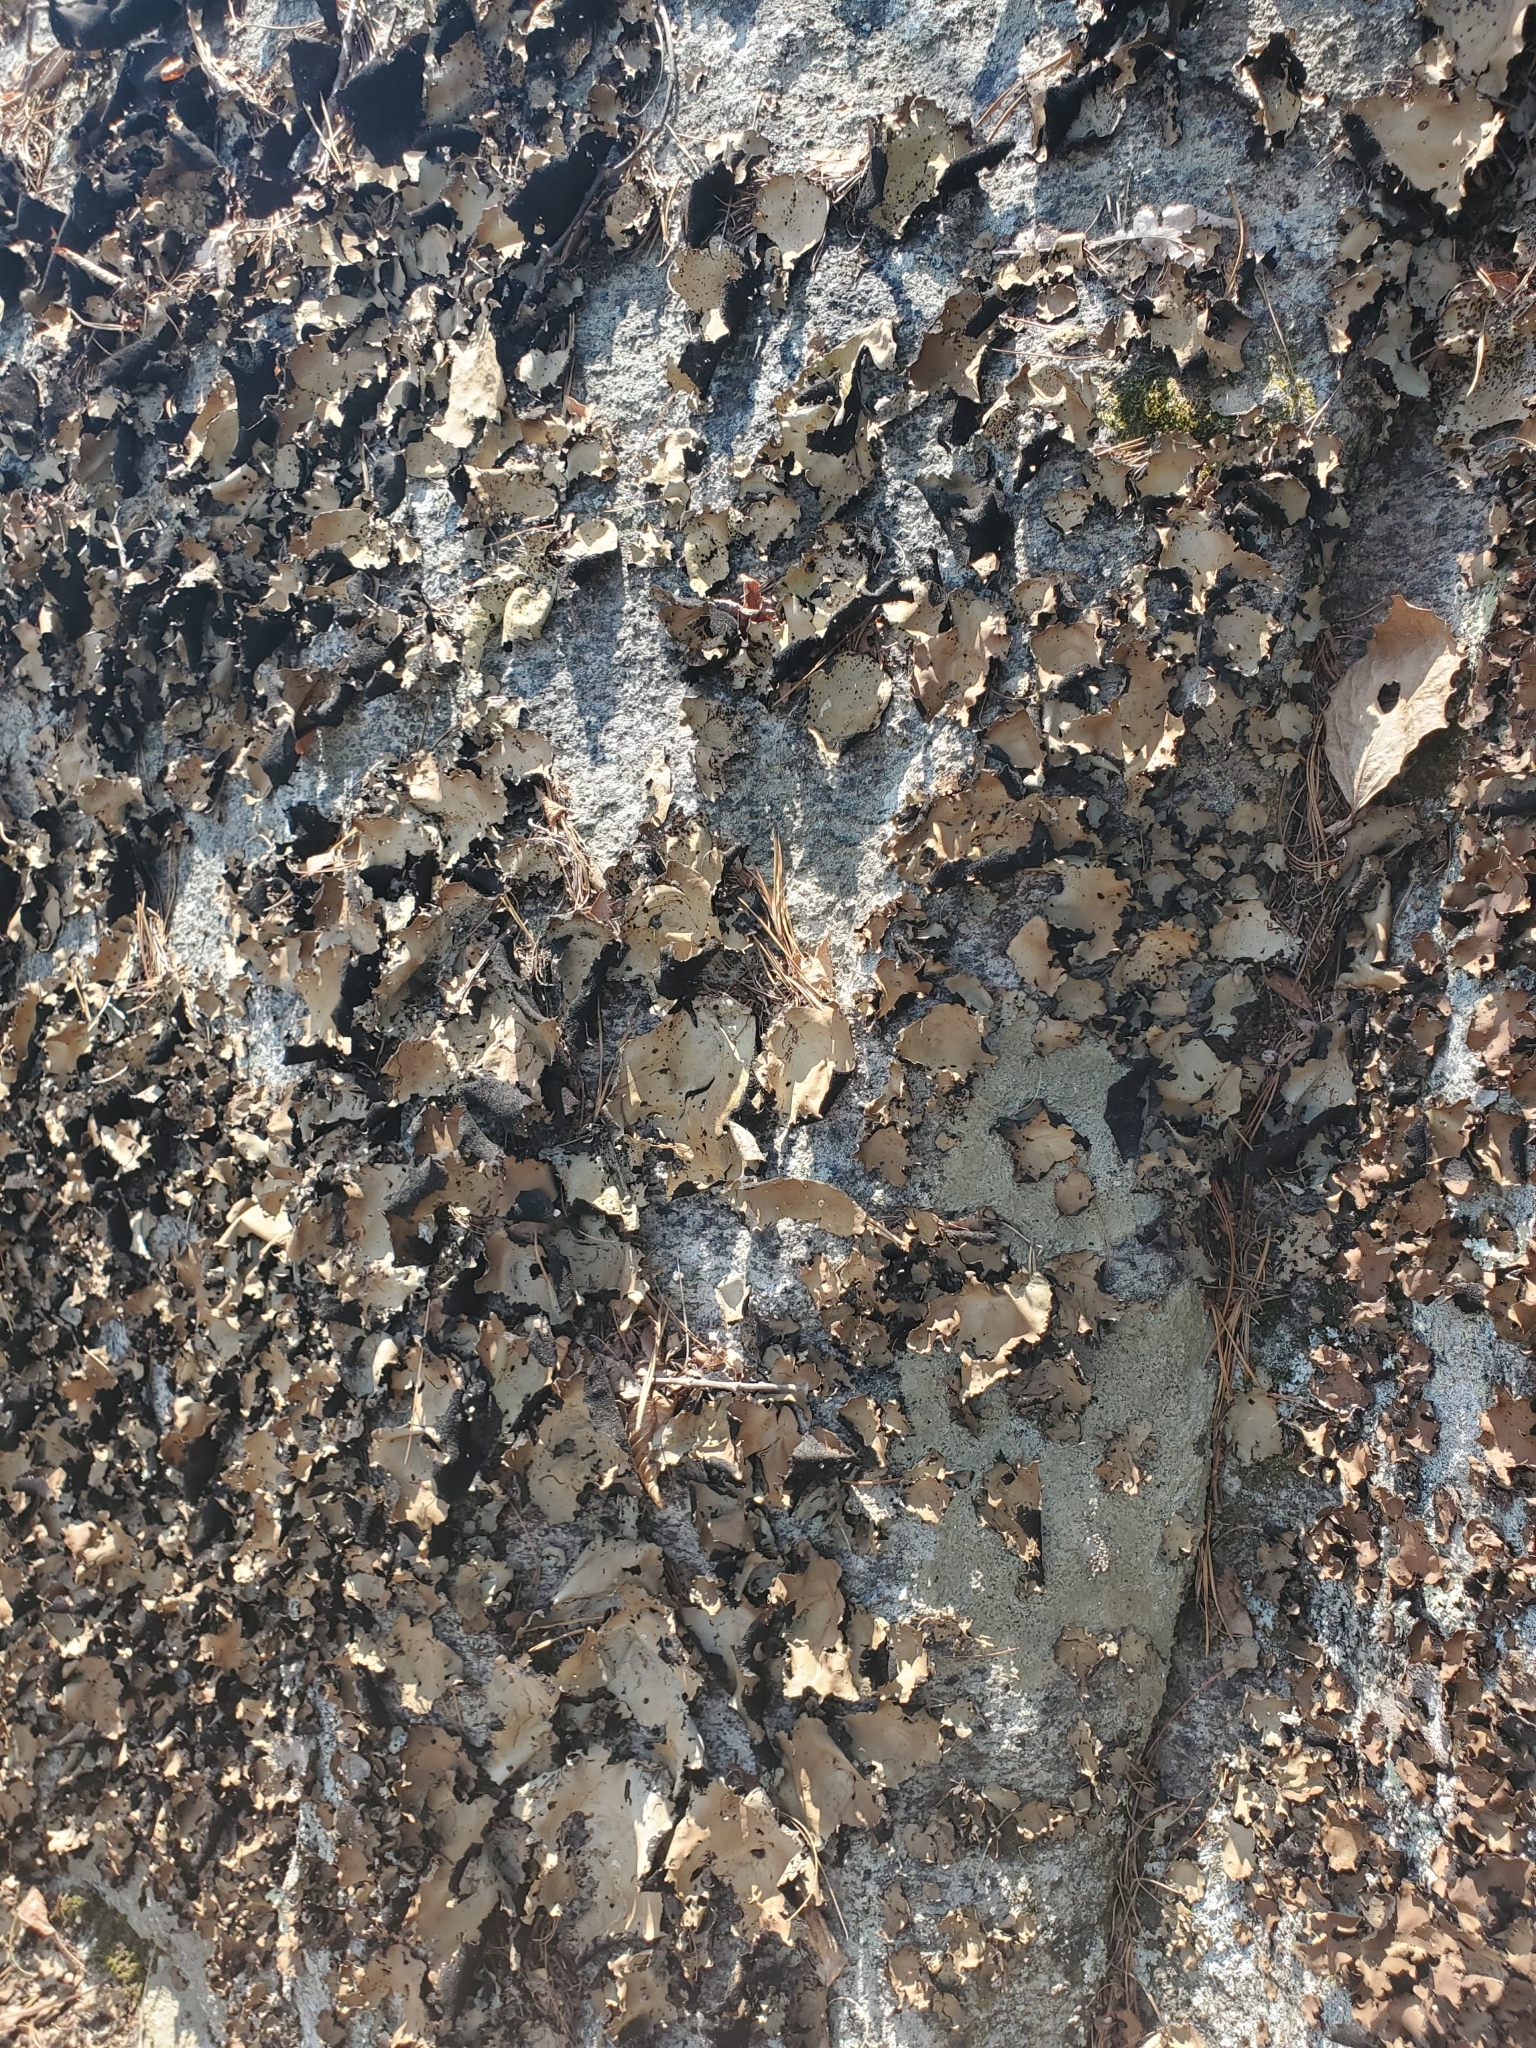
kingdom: Fungi
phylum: Ascomycota
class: Lecanoromycetes
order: Umbilicariales
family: Umbilicariaceae
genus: Umbilicaria
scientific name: Umbilicaria mammulata
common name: Smooth rock tripe
